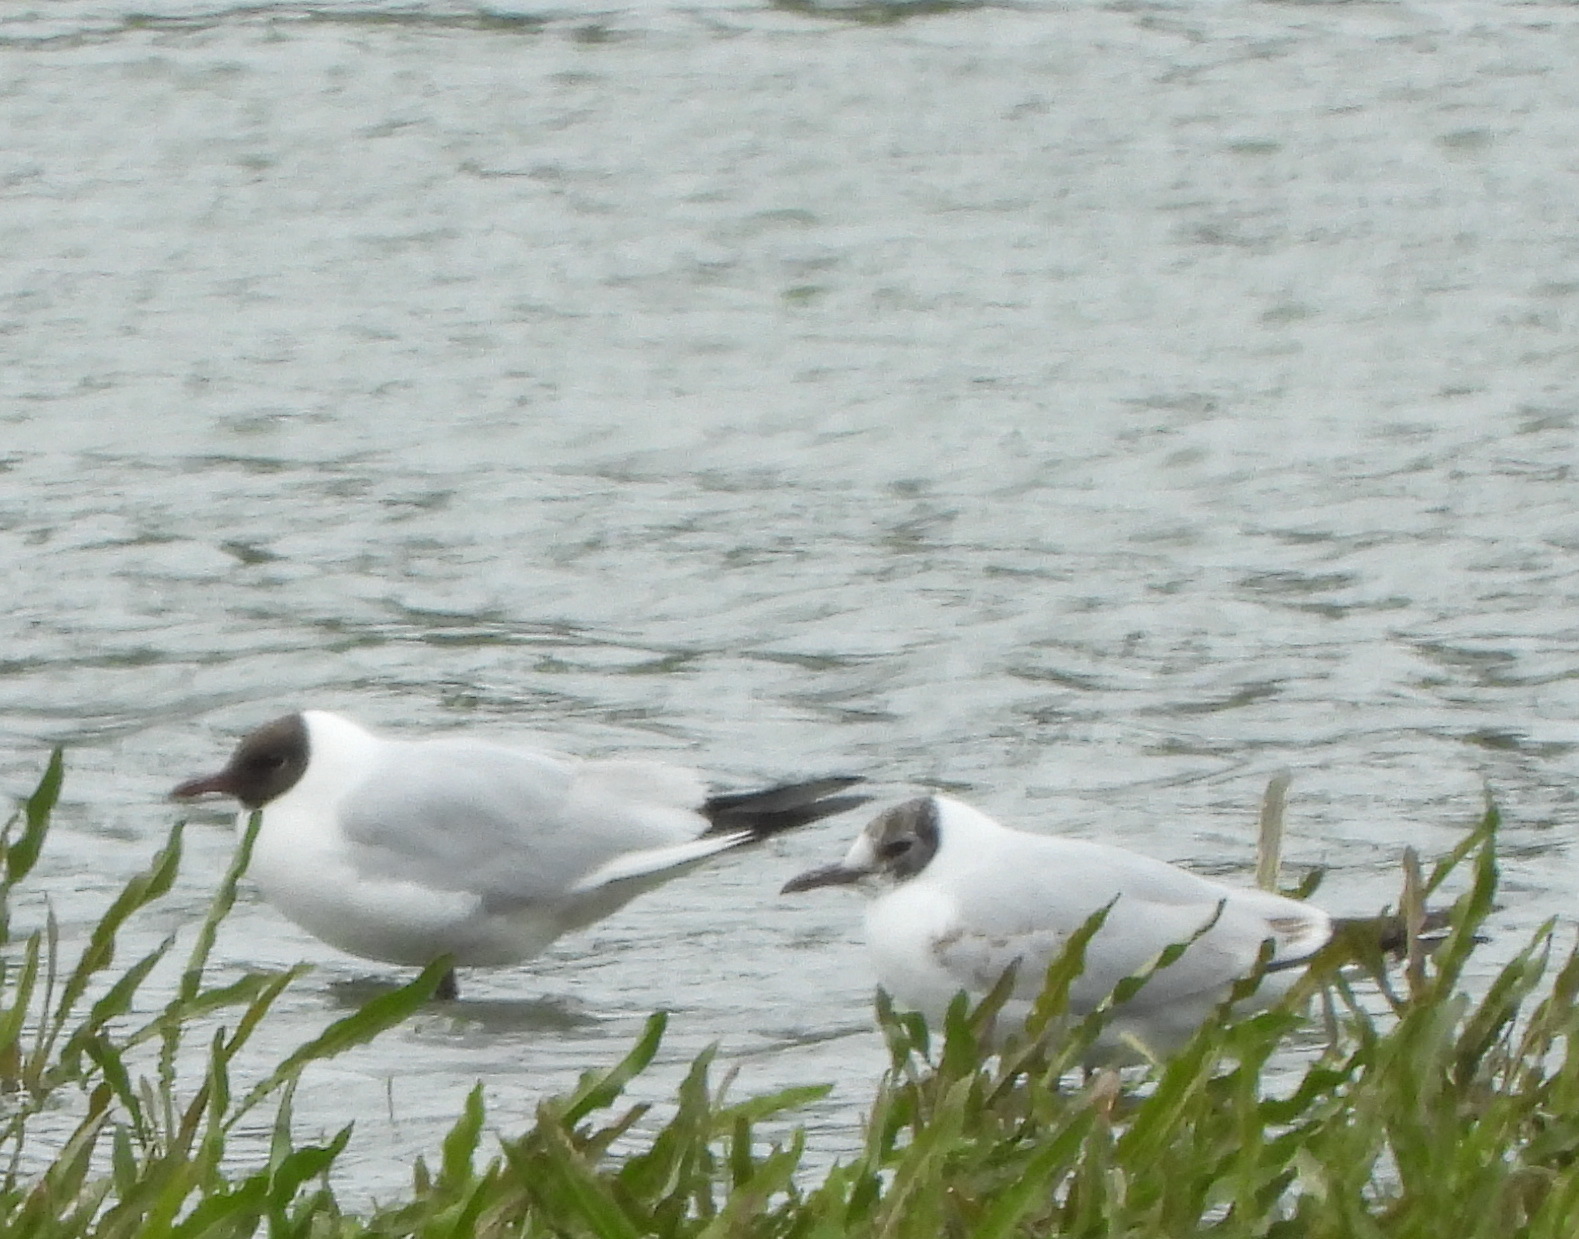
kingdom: Animalia
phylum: Chordata
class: Aves
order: Charadriiformes
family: Laridae
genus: Chroicocephalus
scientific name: Chroicocephalus ridibundus
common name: Black-headed gull
